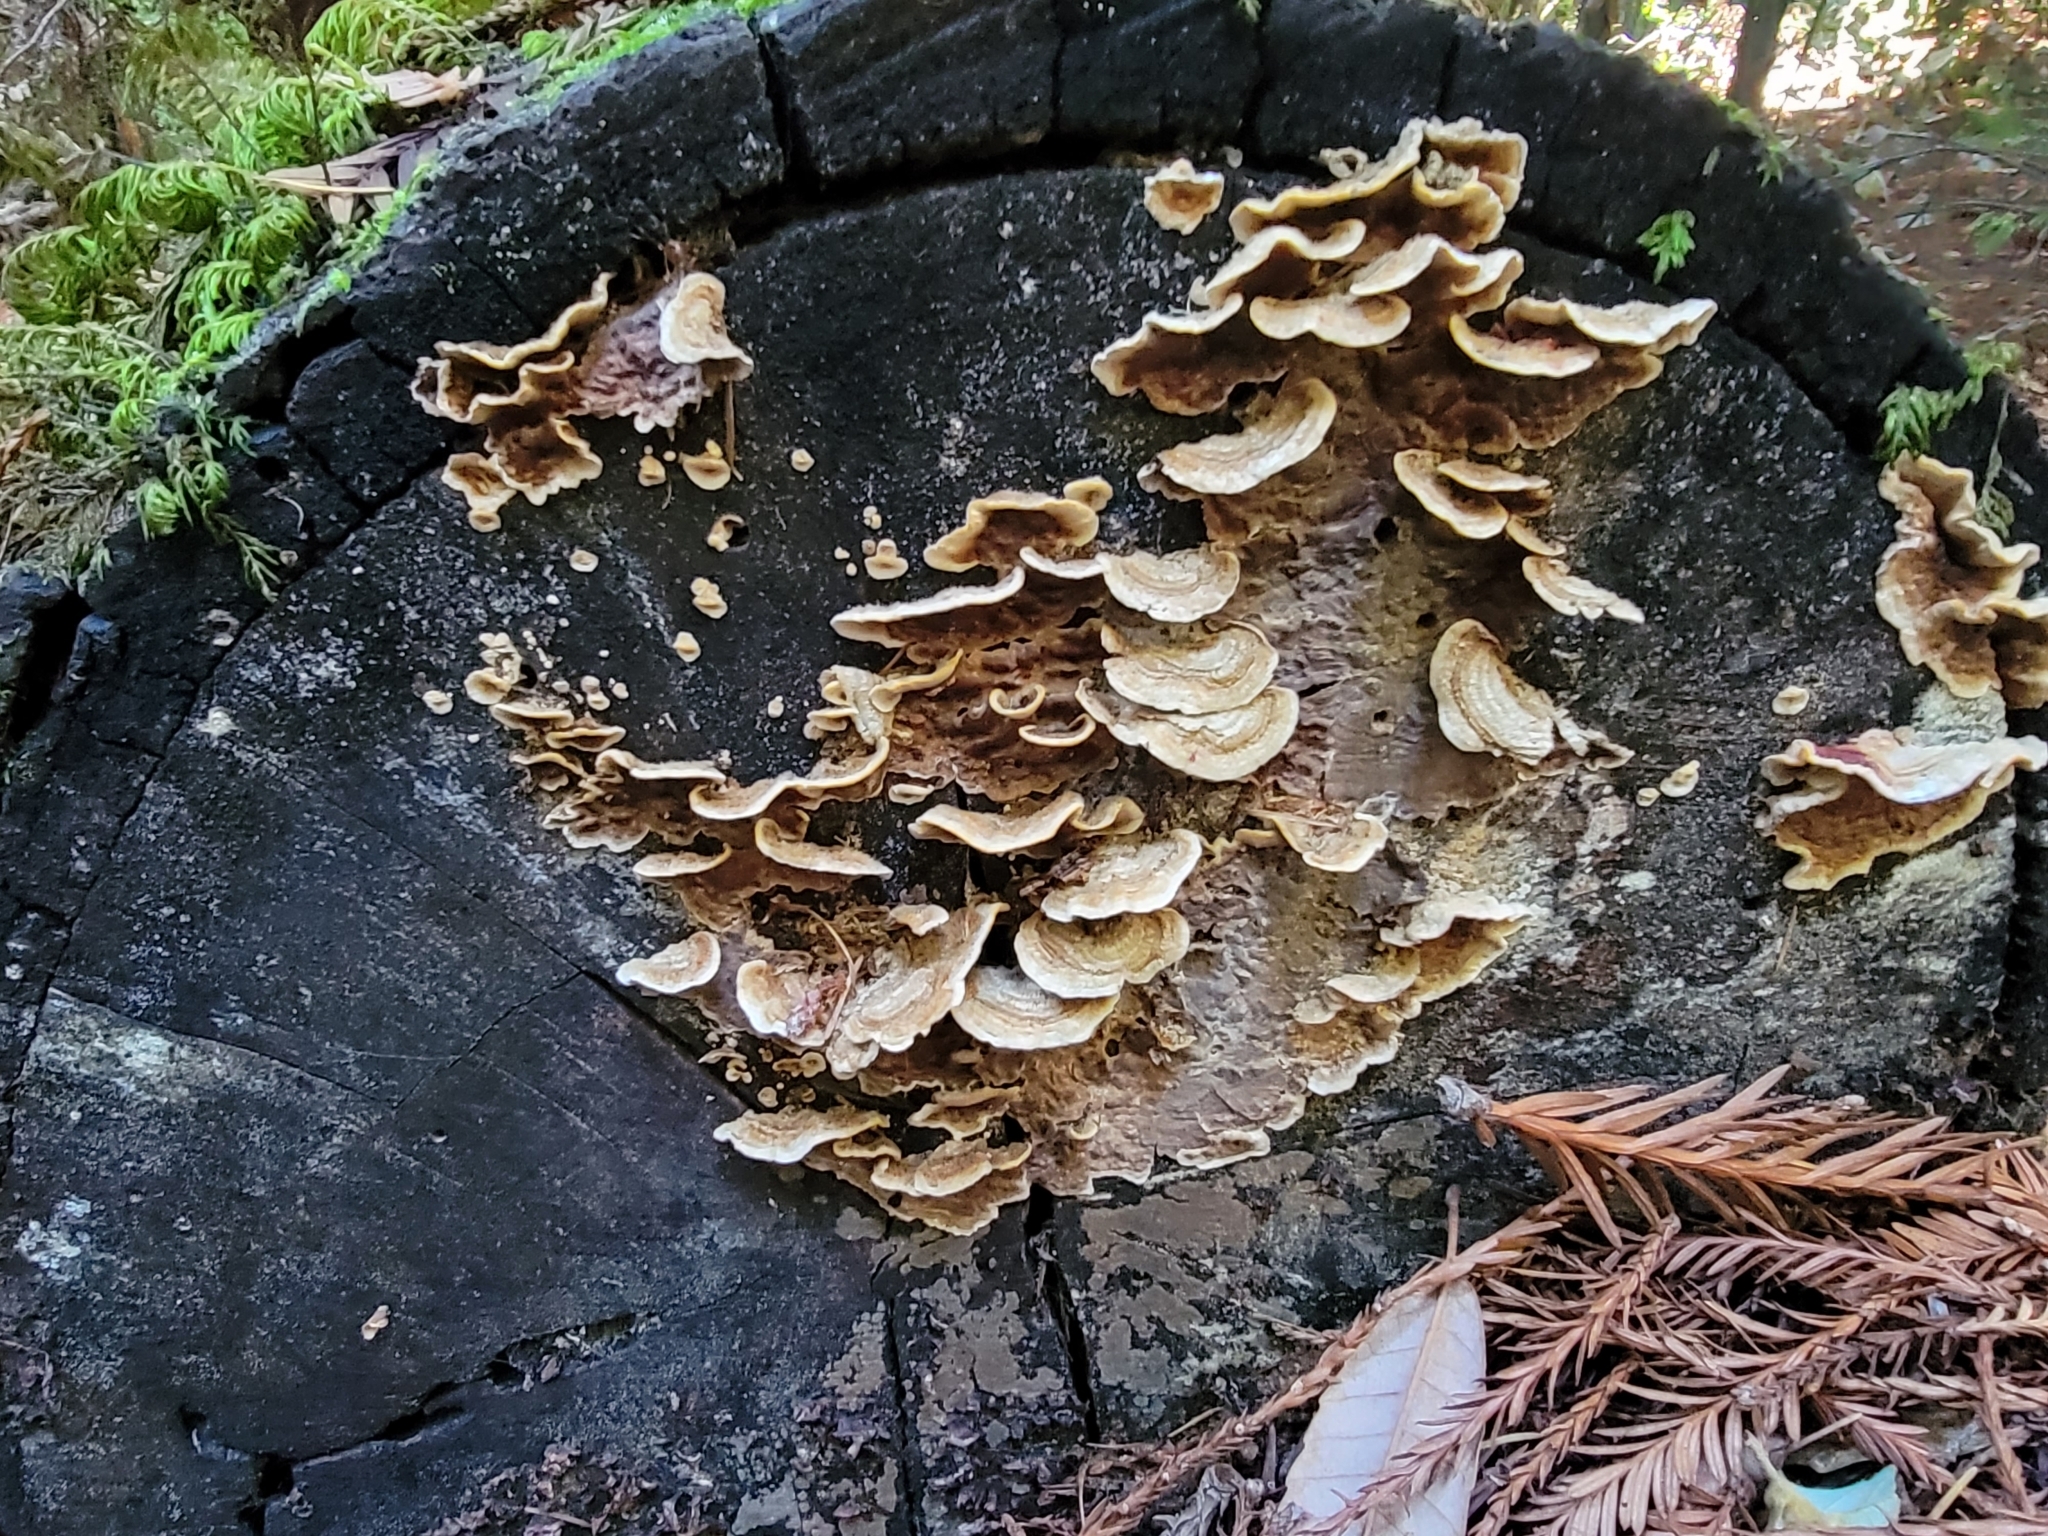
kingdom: Fungi
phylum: Basidiomycota
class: Agaricomycetes
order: Polyporales
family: Phanerochaetaceae
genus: Bjerkandera
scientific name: Bjerkandera adusta
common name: Smoky bracket
